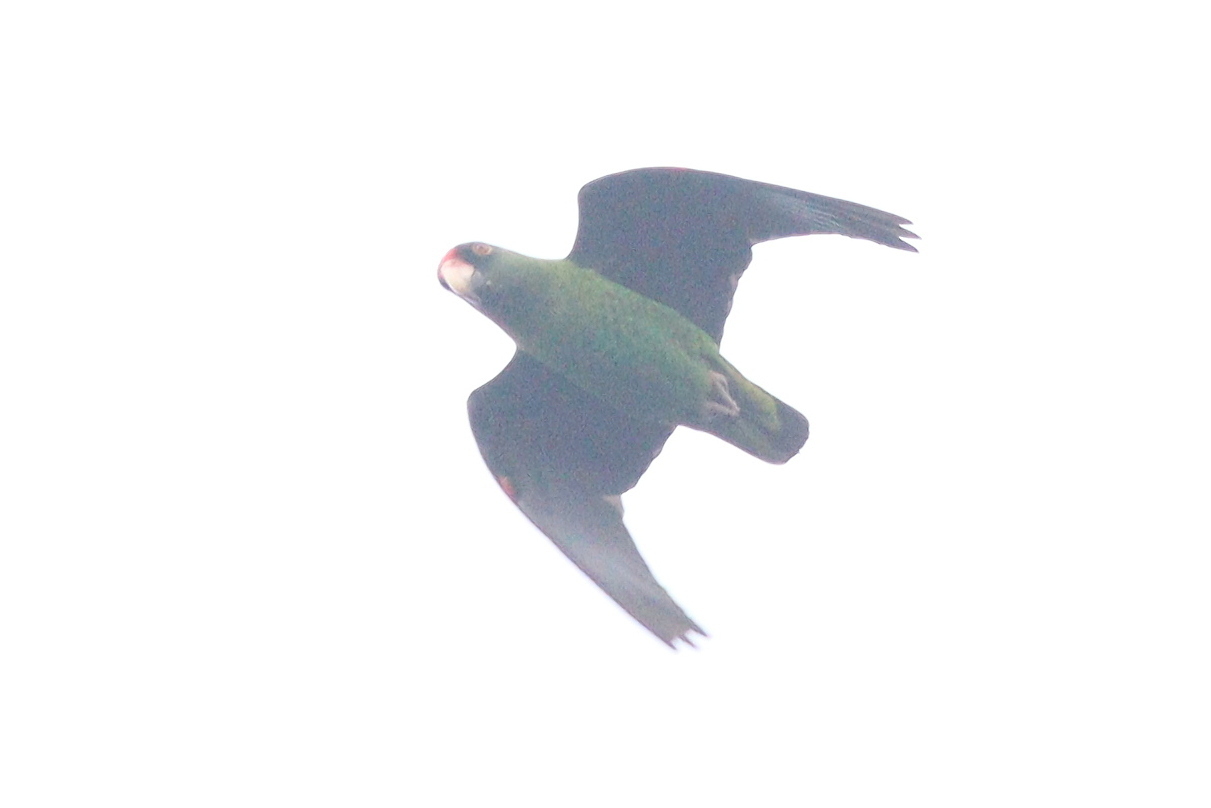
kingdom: Animalia
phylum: Chordata
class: Aves
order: Psittaciformes
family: Psittacidae
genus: Poicephalus
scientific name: Poicephalus gulielmi
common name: Red-fronted parrot
